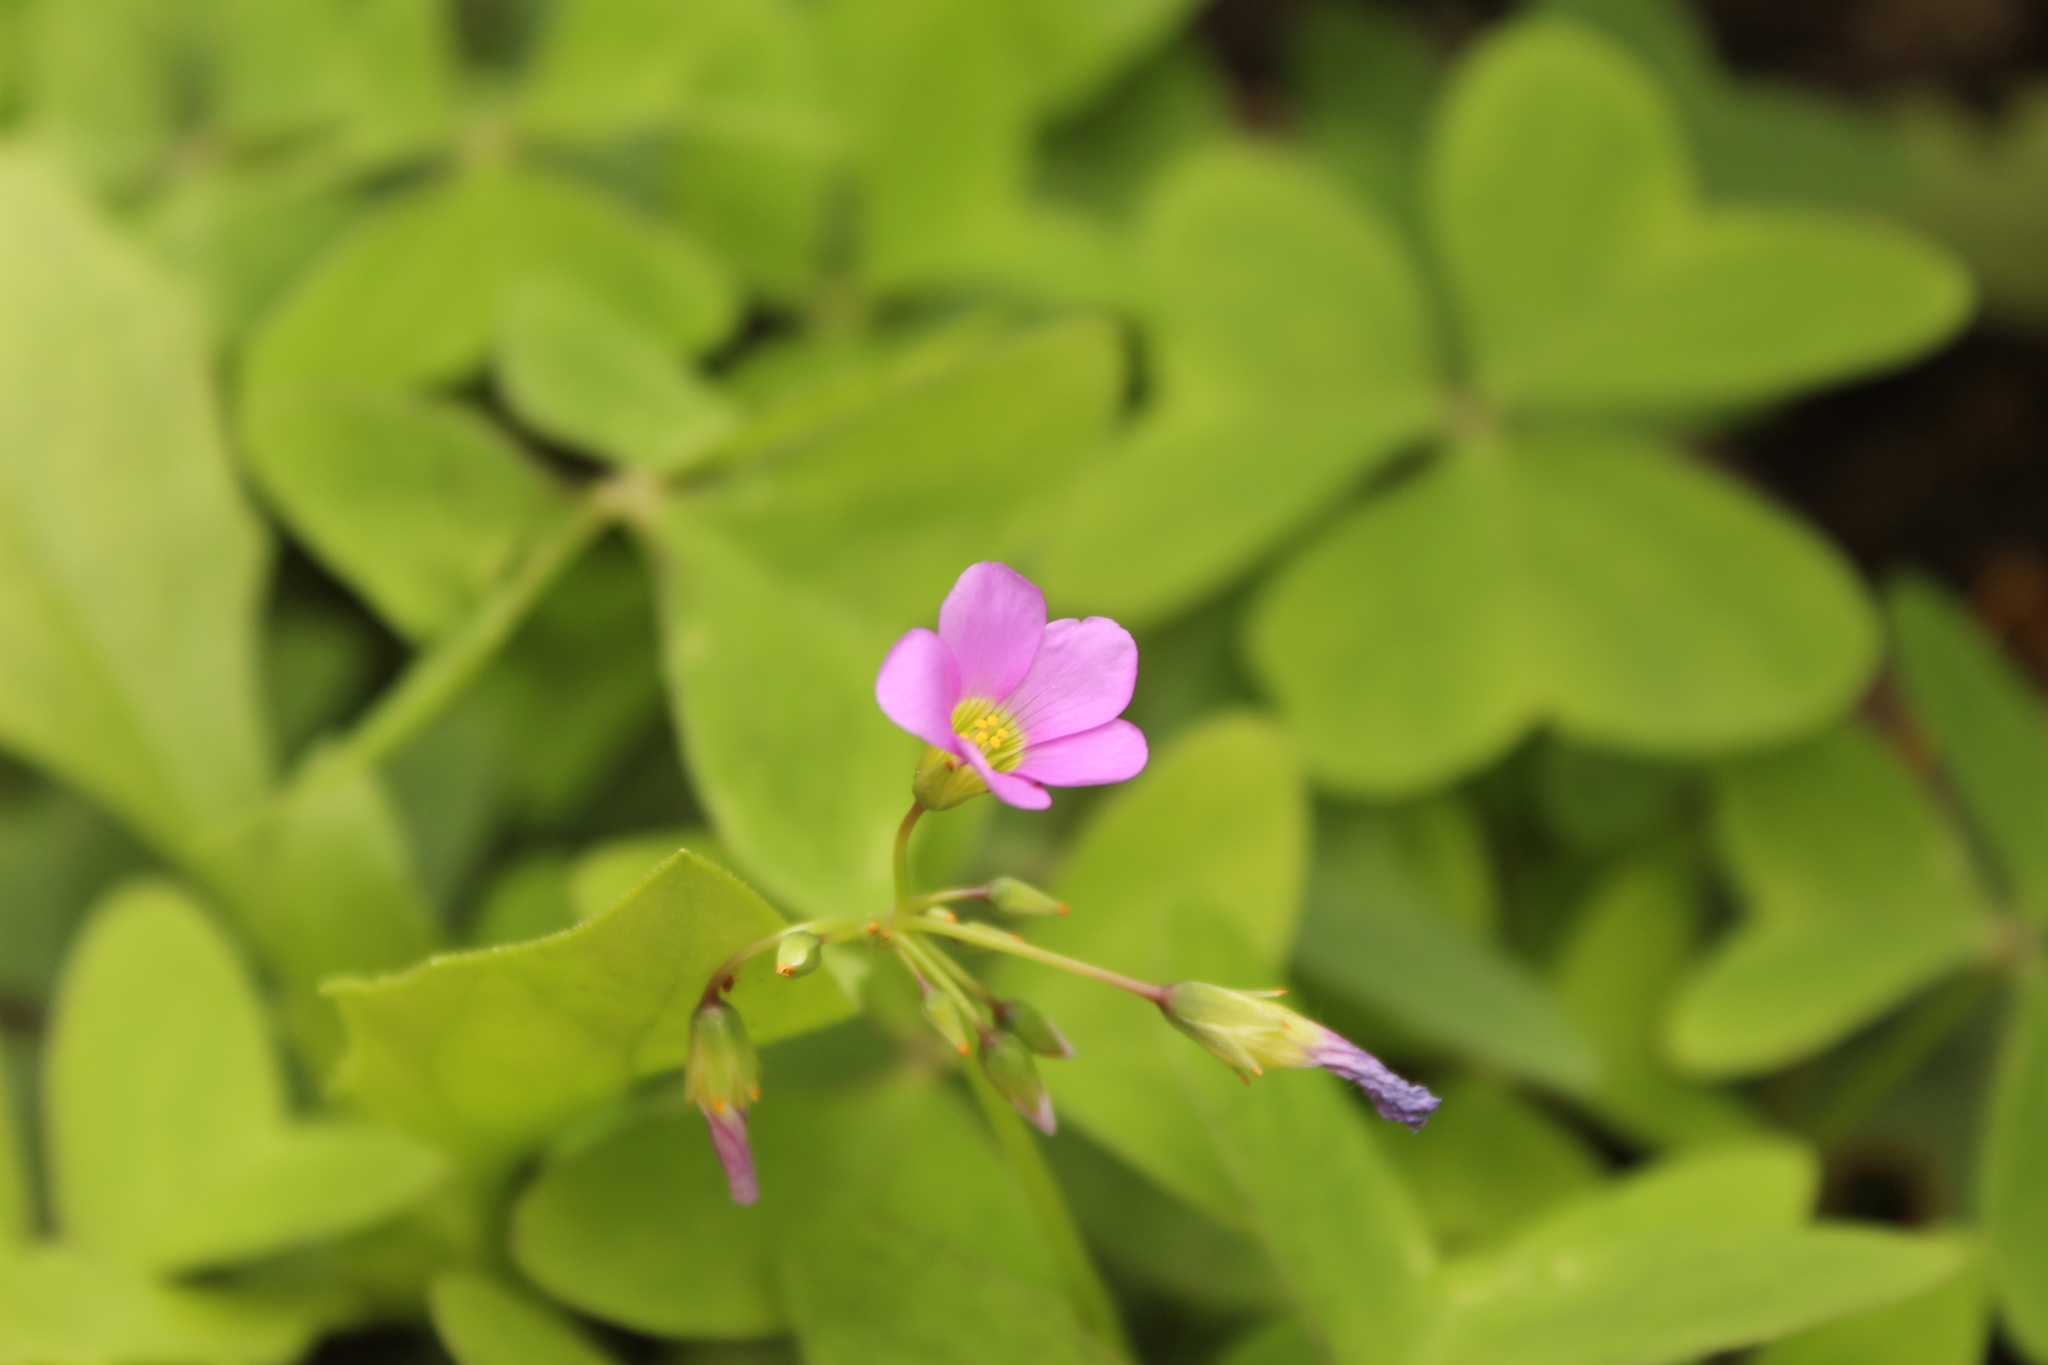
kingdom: Plantae
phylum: Tracheophyta
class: Magnoliopsida
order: Oxalidales
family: Oxalidaceae
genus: Oxalis
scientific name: Oxalis latifolia
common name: Garden pink-sorrel
